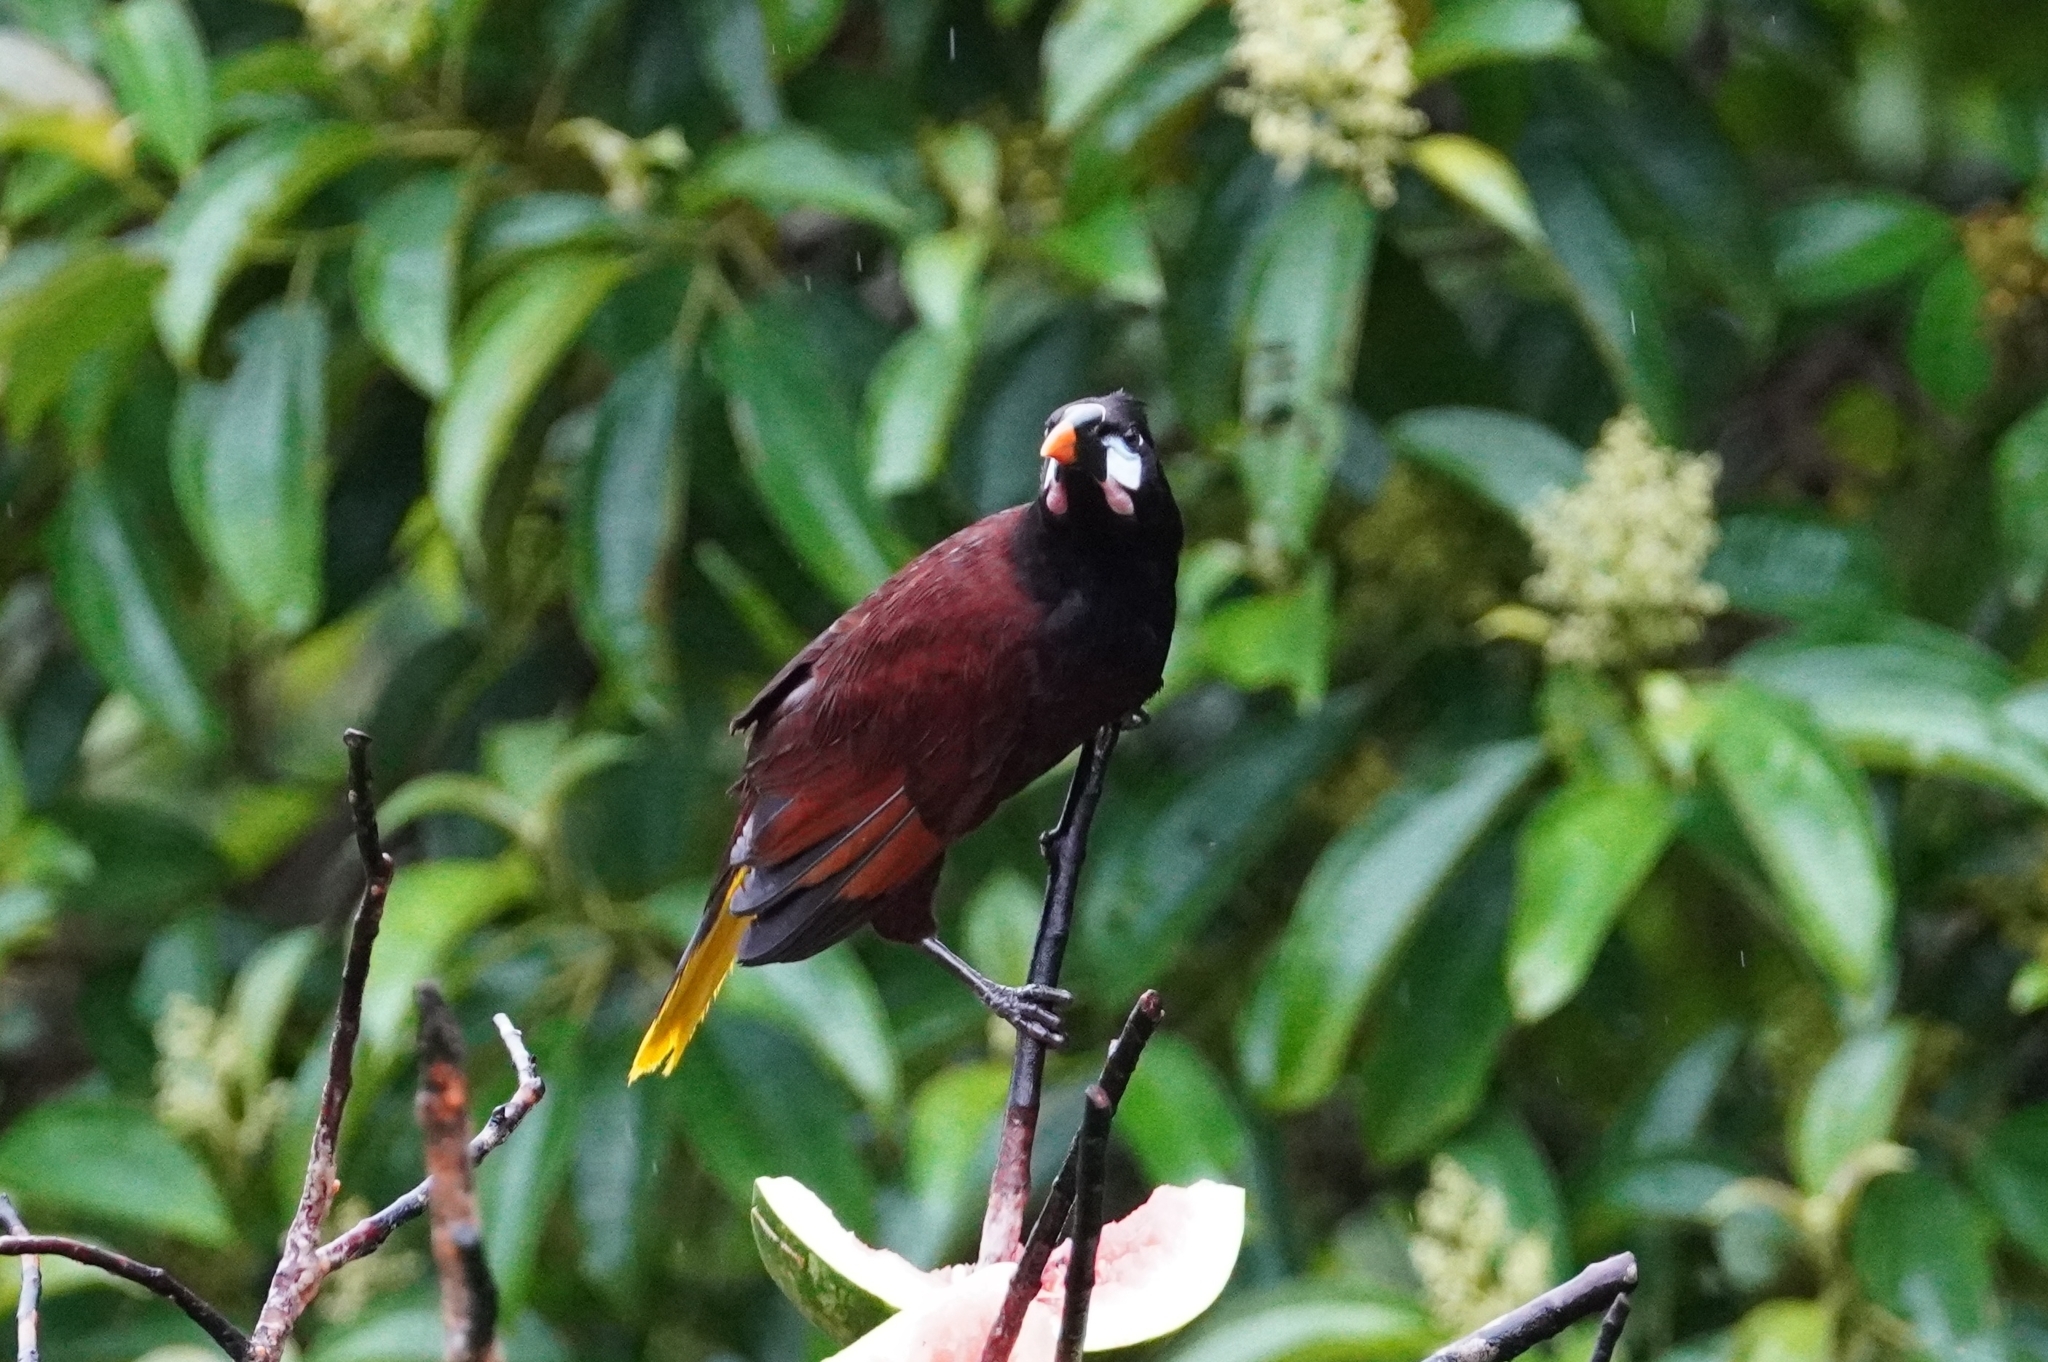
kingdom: Animalia
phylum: Chordata
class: Aves
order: Passeriformes
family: Icteridae
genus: Psarocolius
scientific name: Psarocolius montezuma
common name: Montezuma oropendola
